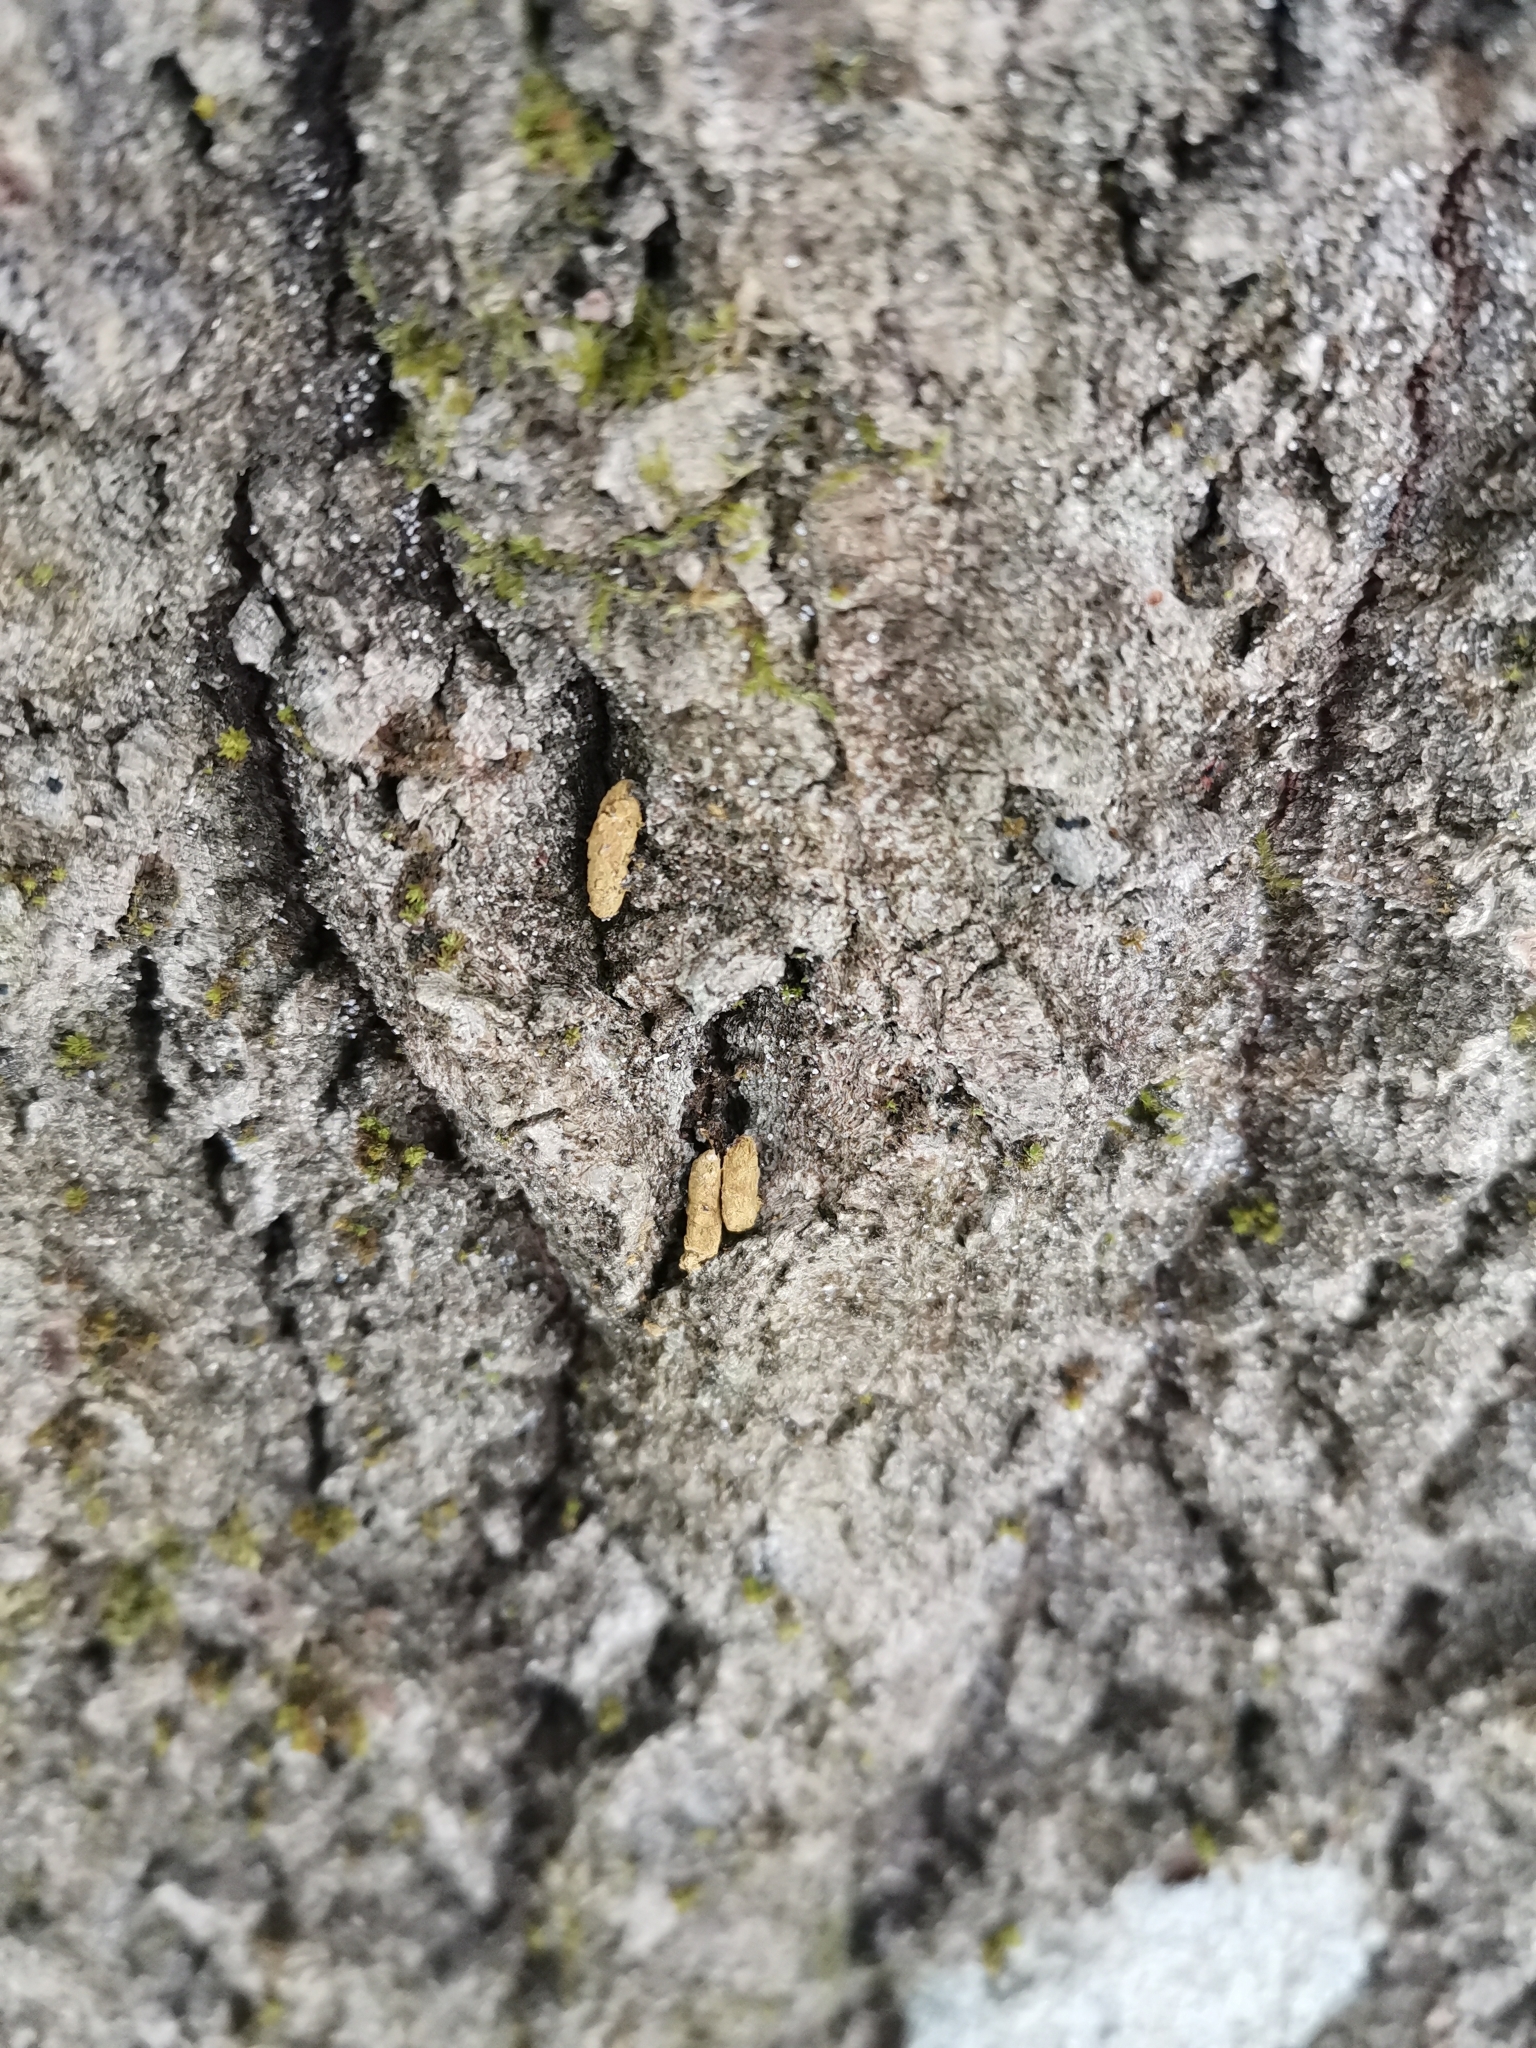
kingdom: Animalia
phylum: Chordata
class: Mammalia
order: Rodentia
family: Sciuridae
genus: Pteromys
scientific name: Pteromys volans
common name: Siberian flying squirrel
